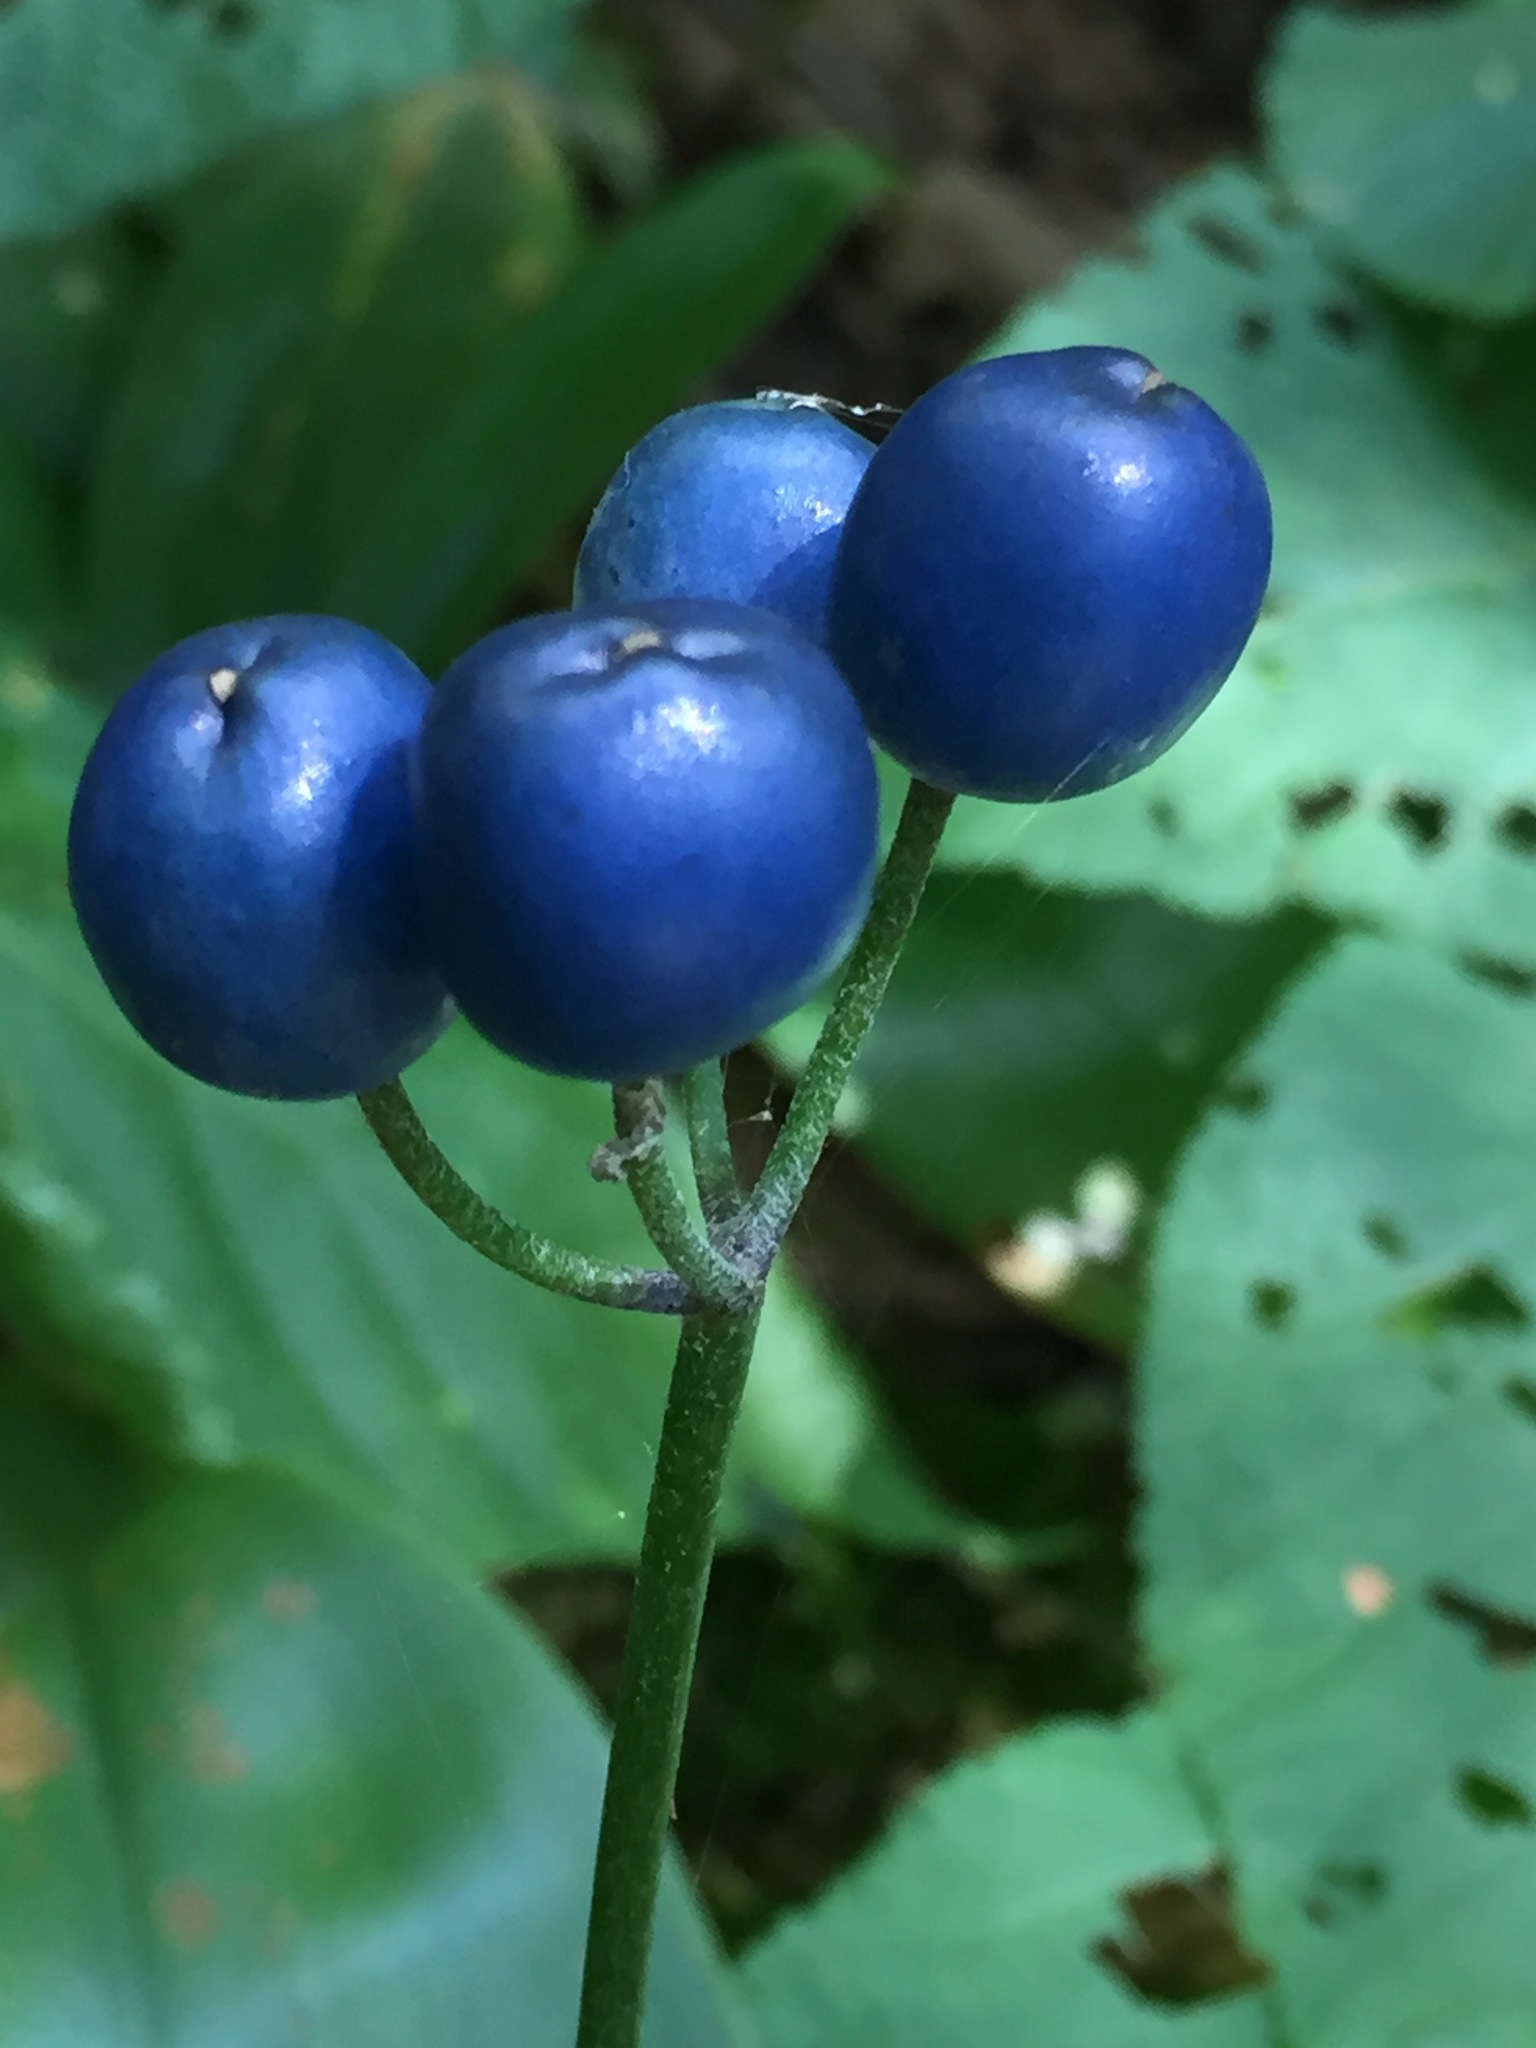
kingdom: Plantae
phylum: Tracheophyta
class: Liliopsida
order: Liliales
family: Liliaceae
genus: Clintonia
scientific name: Clintonia borealis
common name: Yellow clintonia
